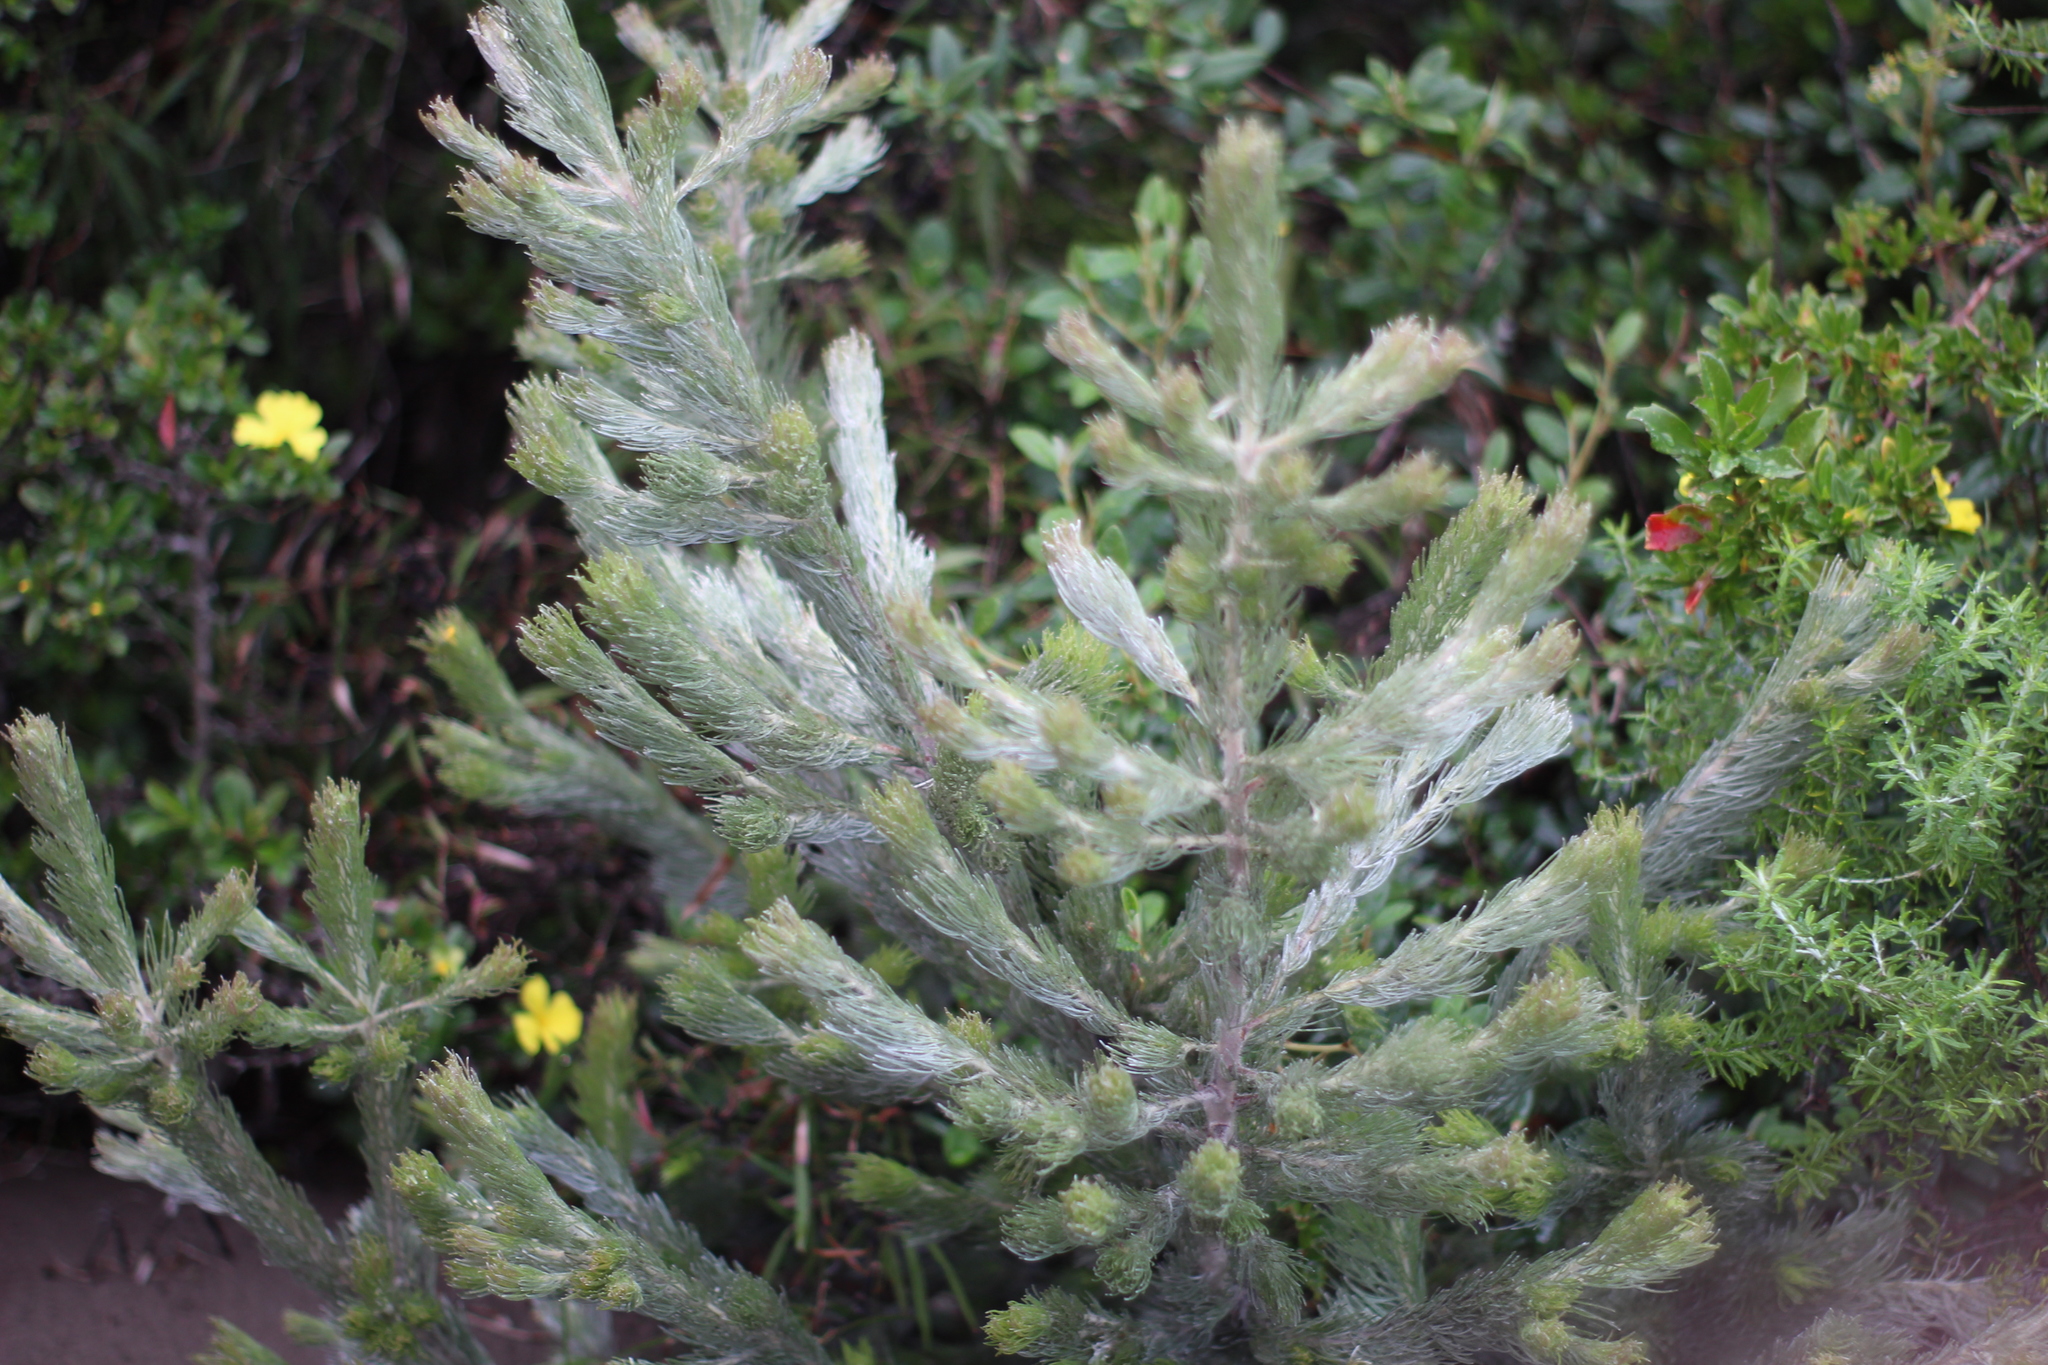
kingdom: Plantae
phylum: Tracheophyta
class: Magnoliopsida
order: Proteales
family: Proteaceae
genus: Adenanthos
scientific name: Adenanthos sericeus
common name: Coastal woollybush
